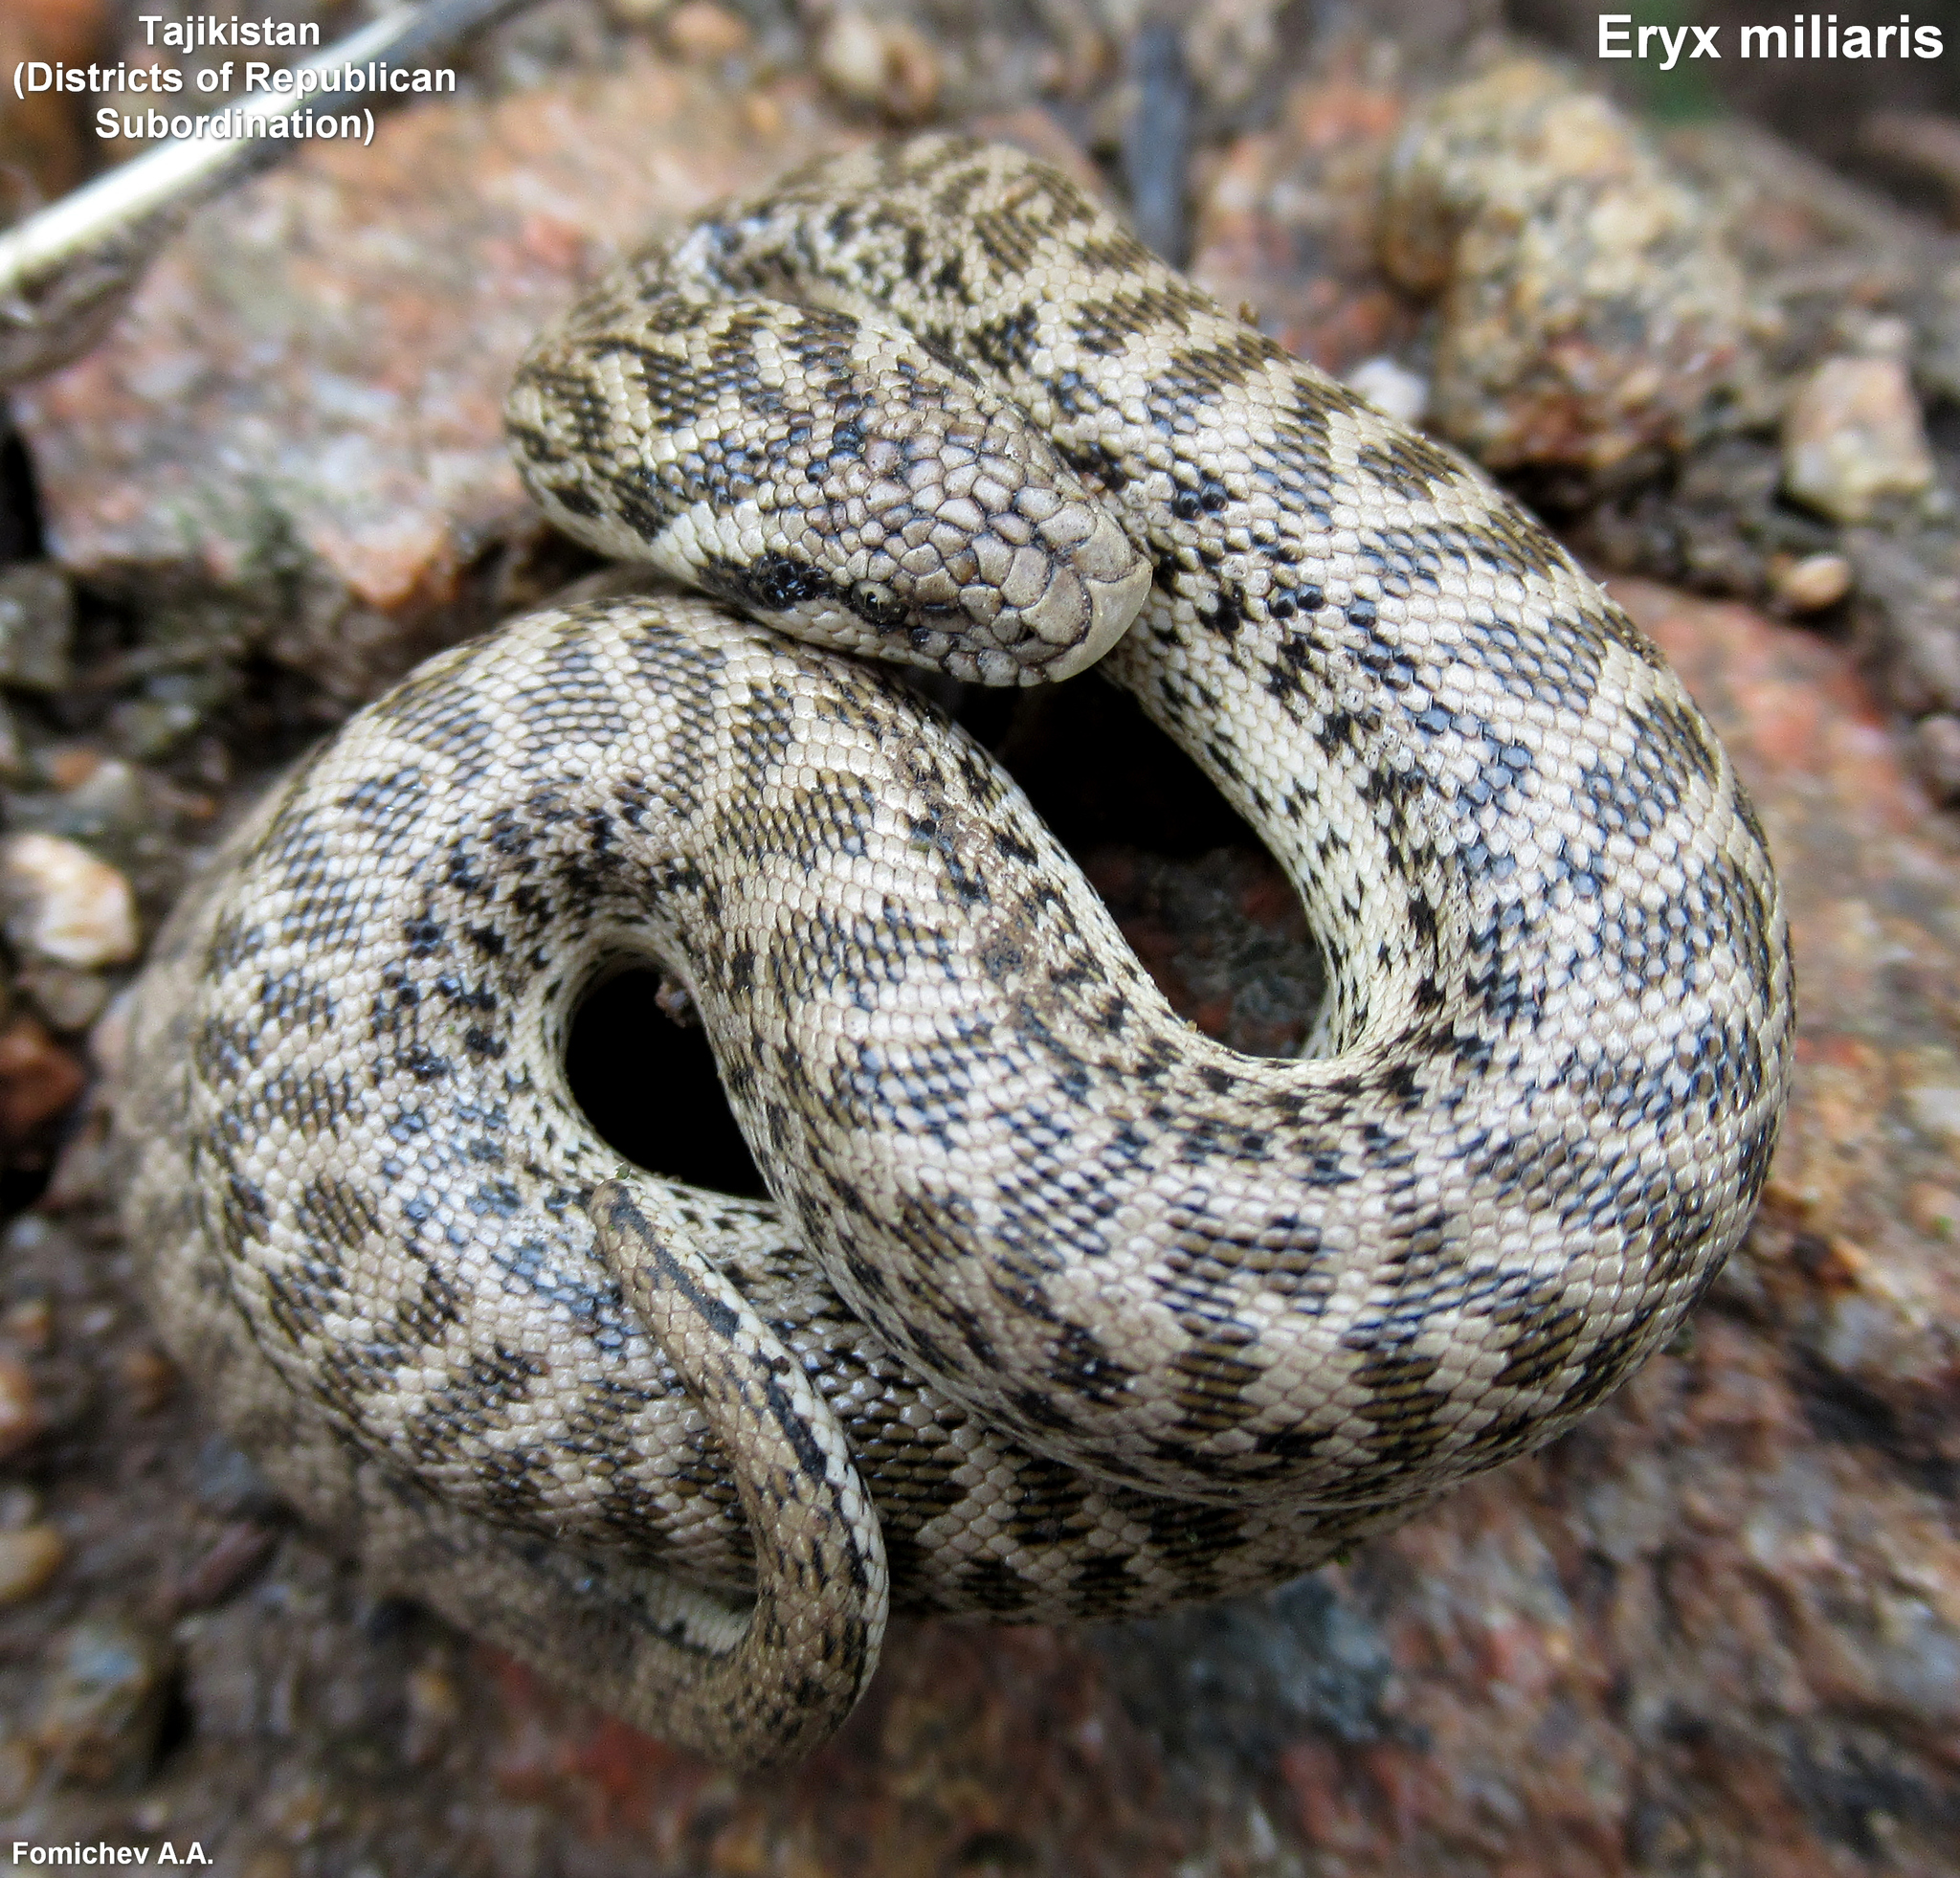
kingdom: Animalia
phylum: Chordata
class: Squamata
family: Boidae
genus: Eryx
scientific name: Eryx miliaris
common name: Desert sand boa
